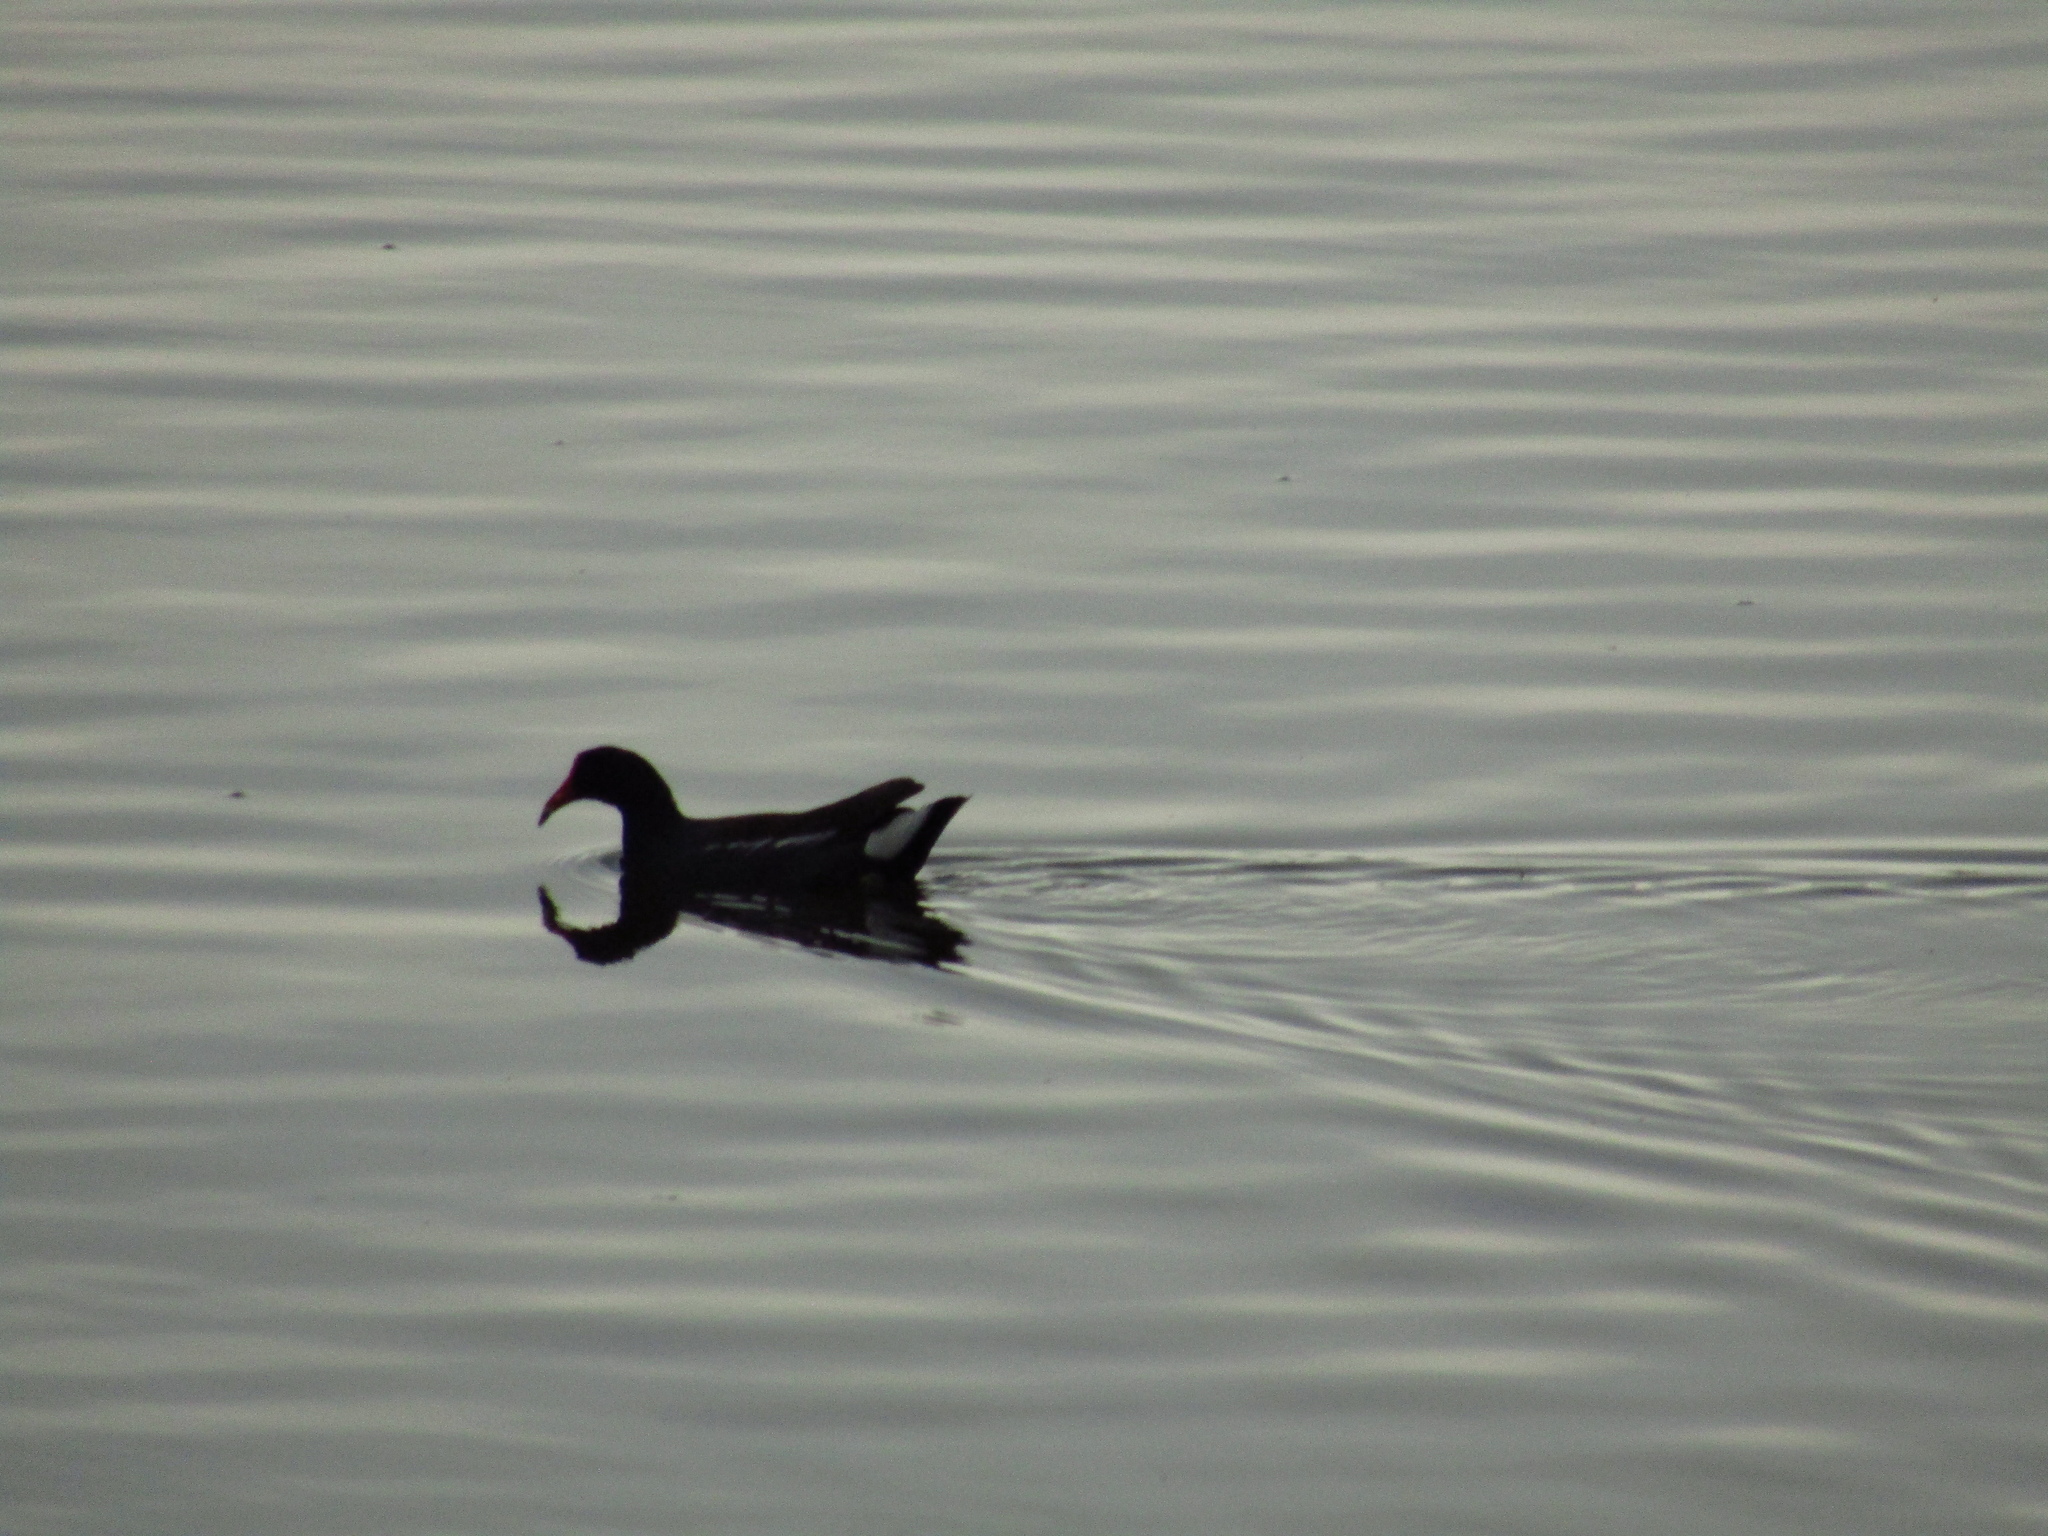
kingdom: Animalia
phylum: Chordata
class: Aves
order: Gruiformes
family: Rallidae
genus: Gallinula
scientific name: Gallinula chloropus
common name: Common moorhen
